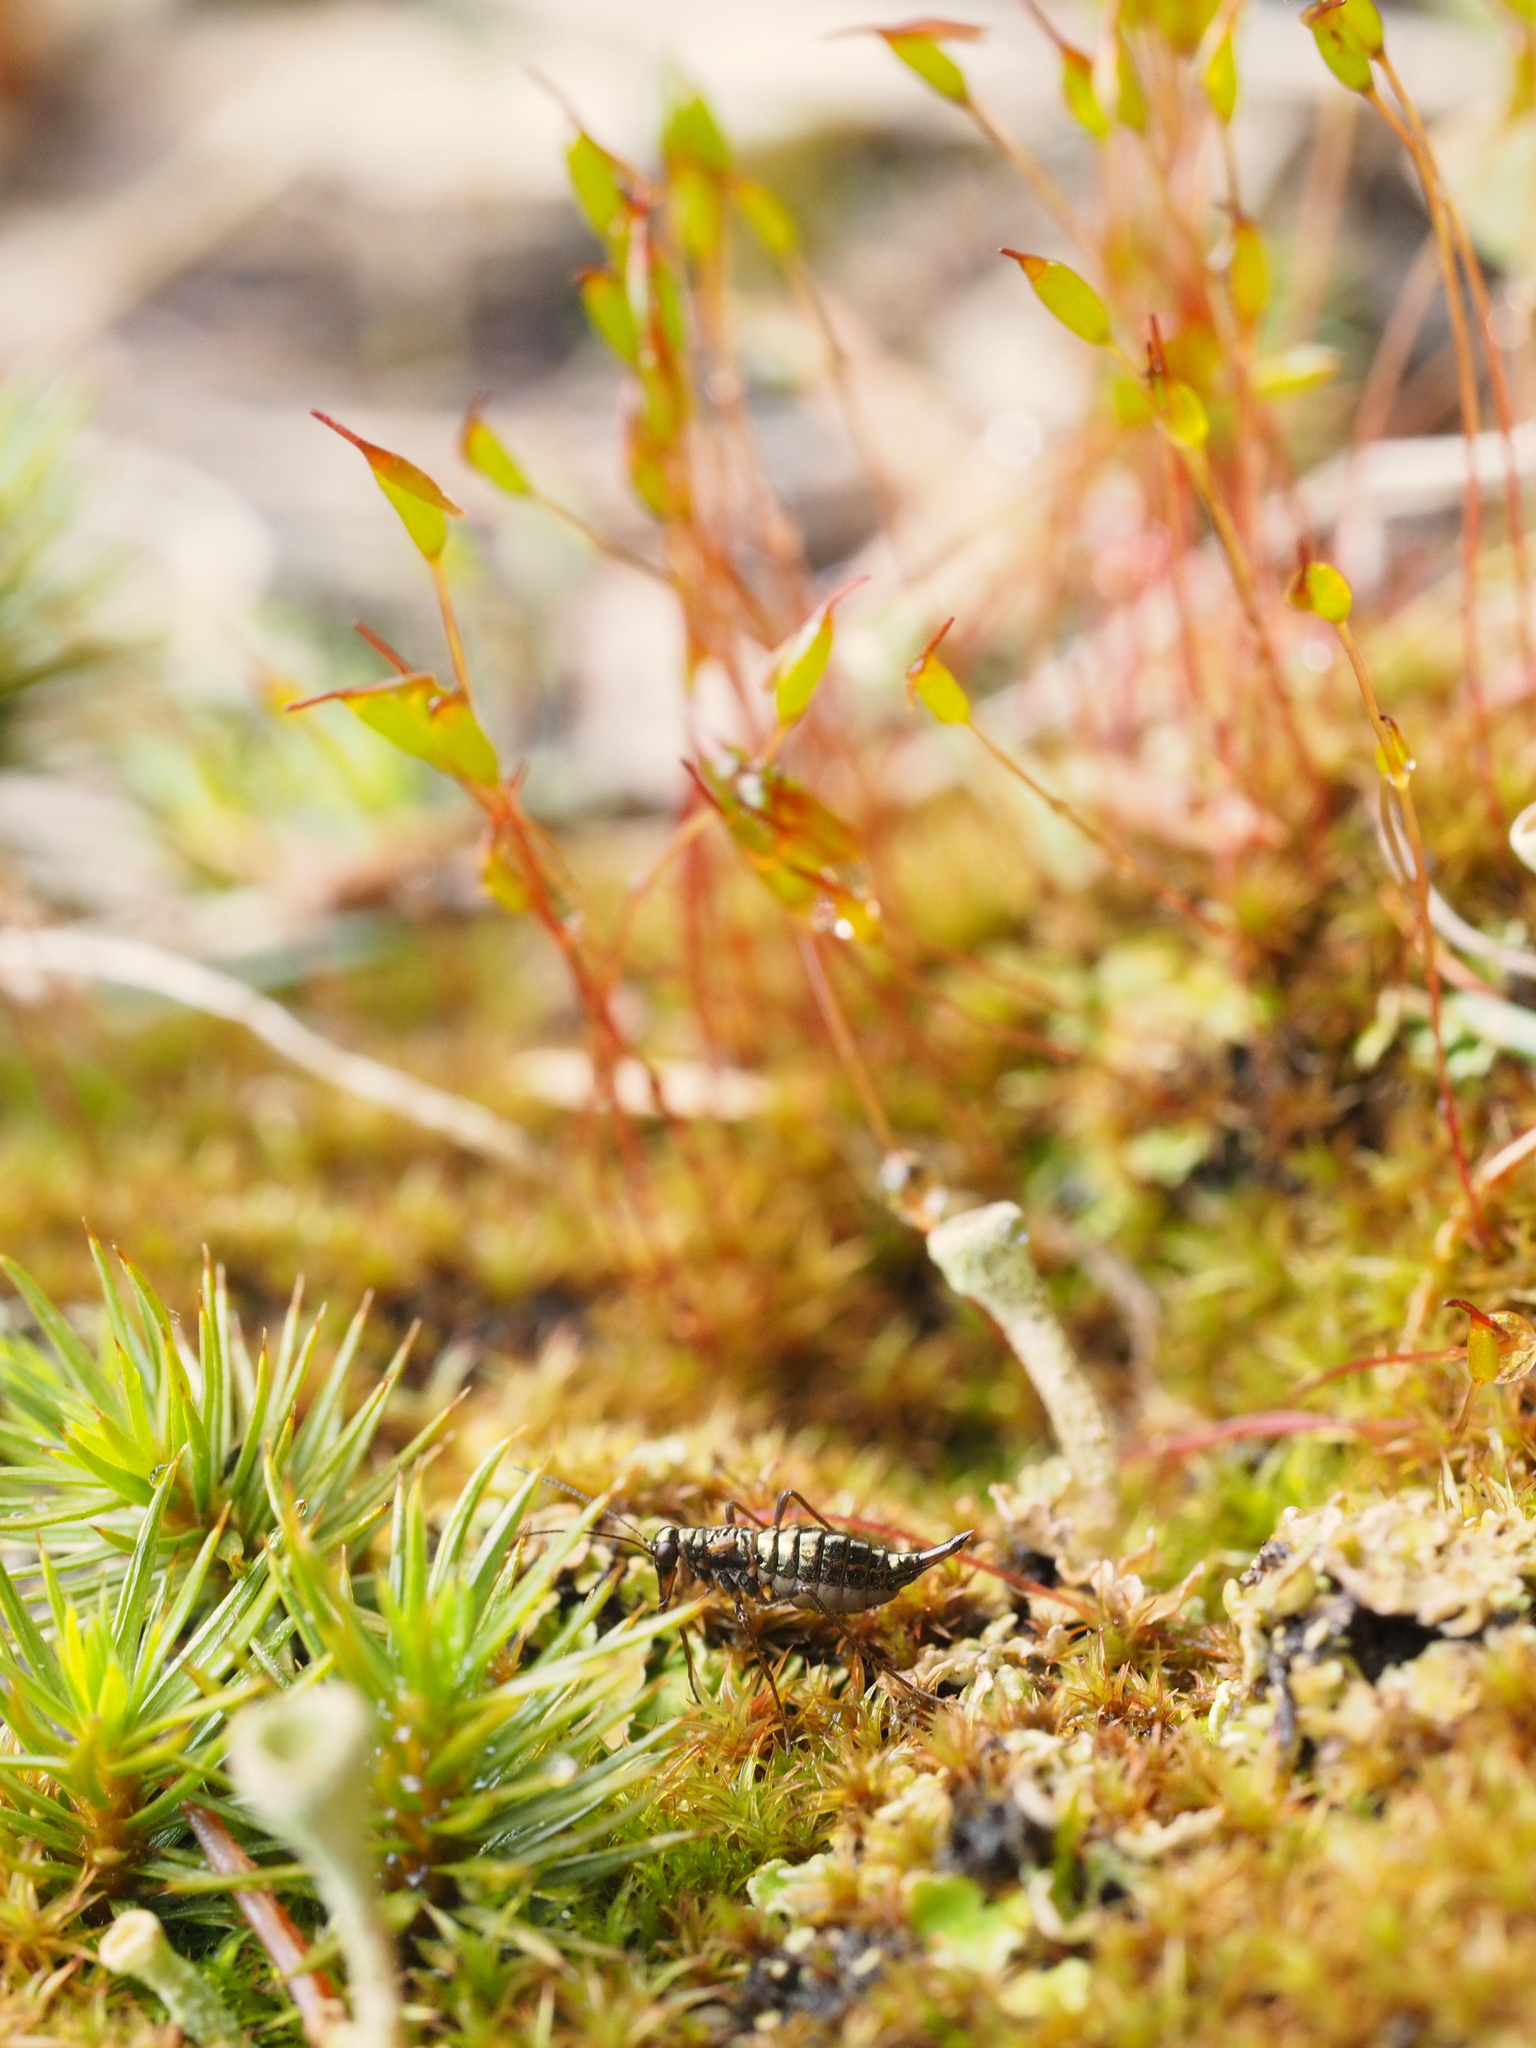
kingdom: Animalia
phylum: Arthropoda
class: Insecta
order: Mecoptera
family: Boreidae
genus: Boreus
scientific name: Boreus westwoodi
